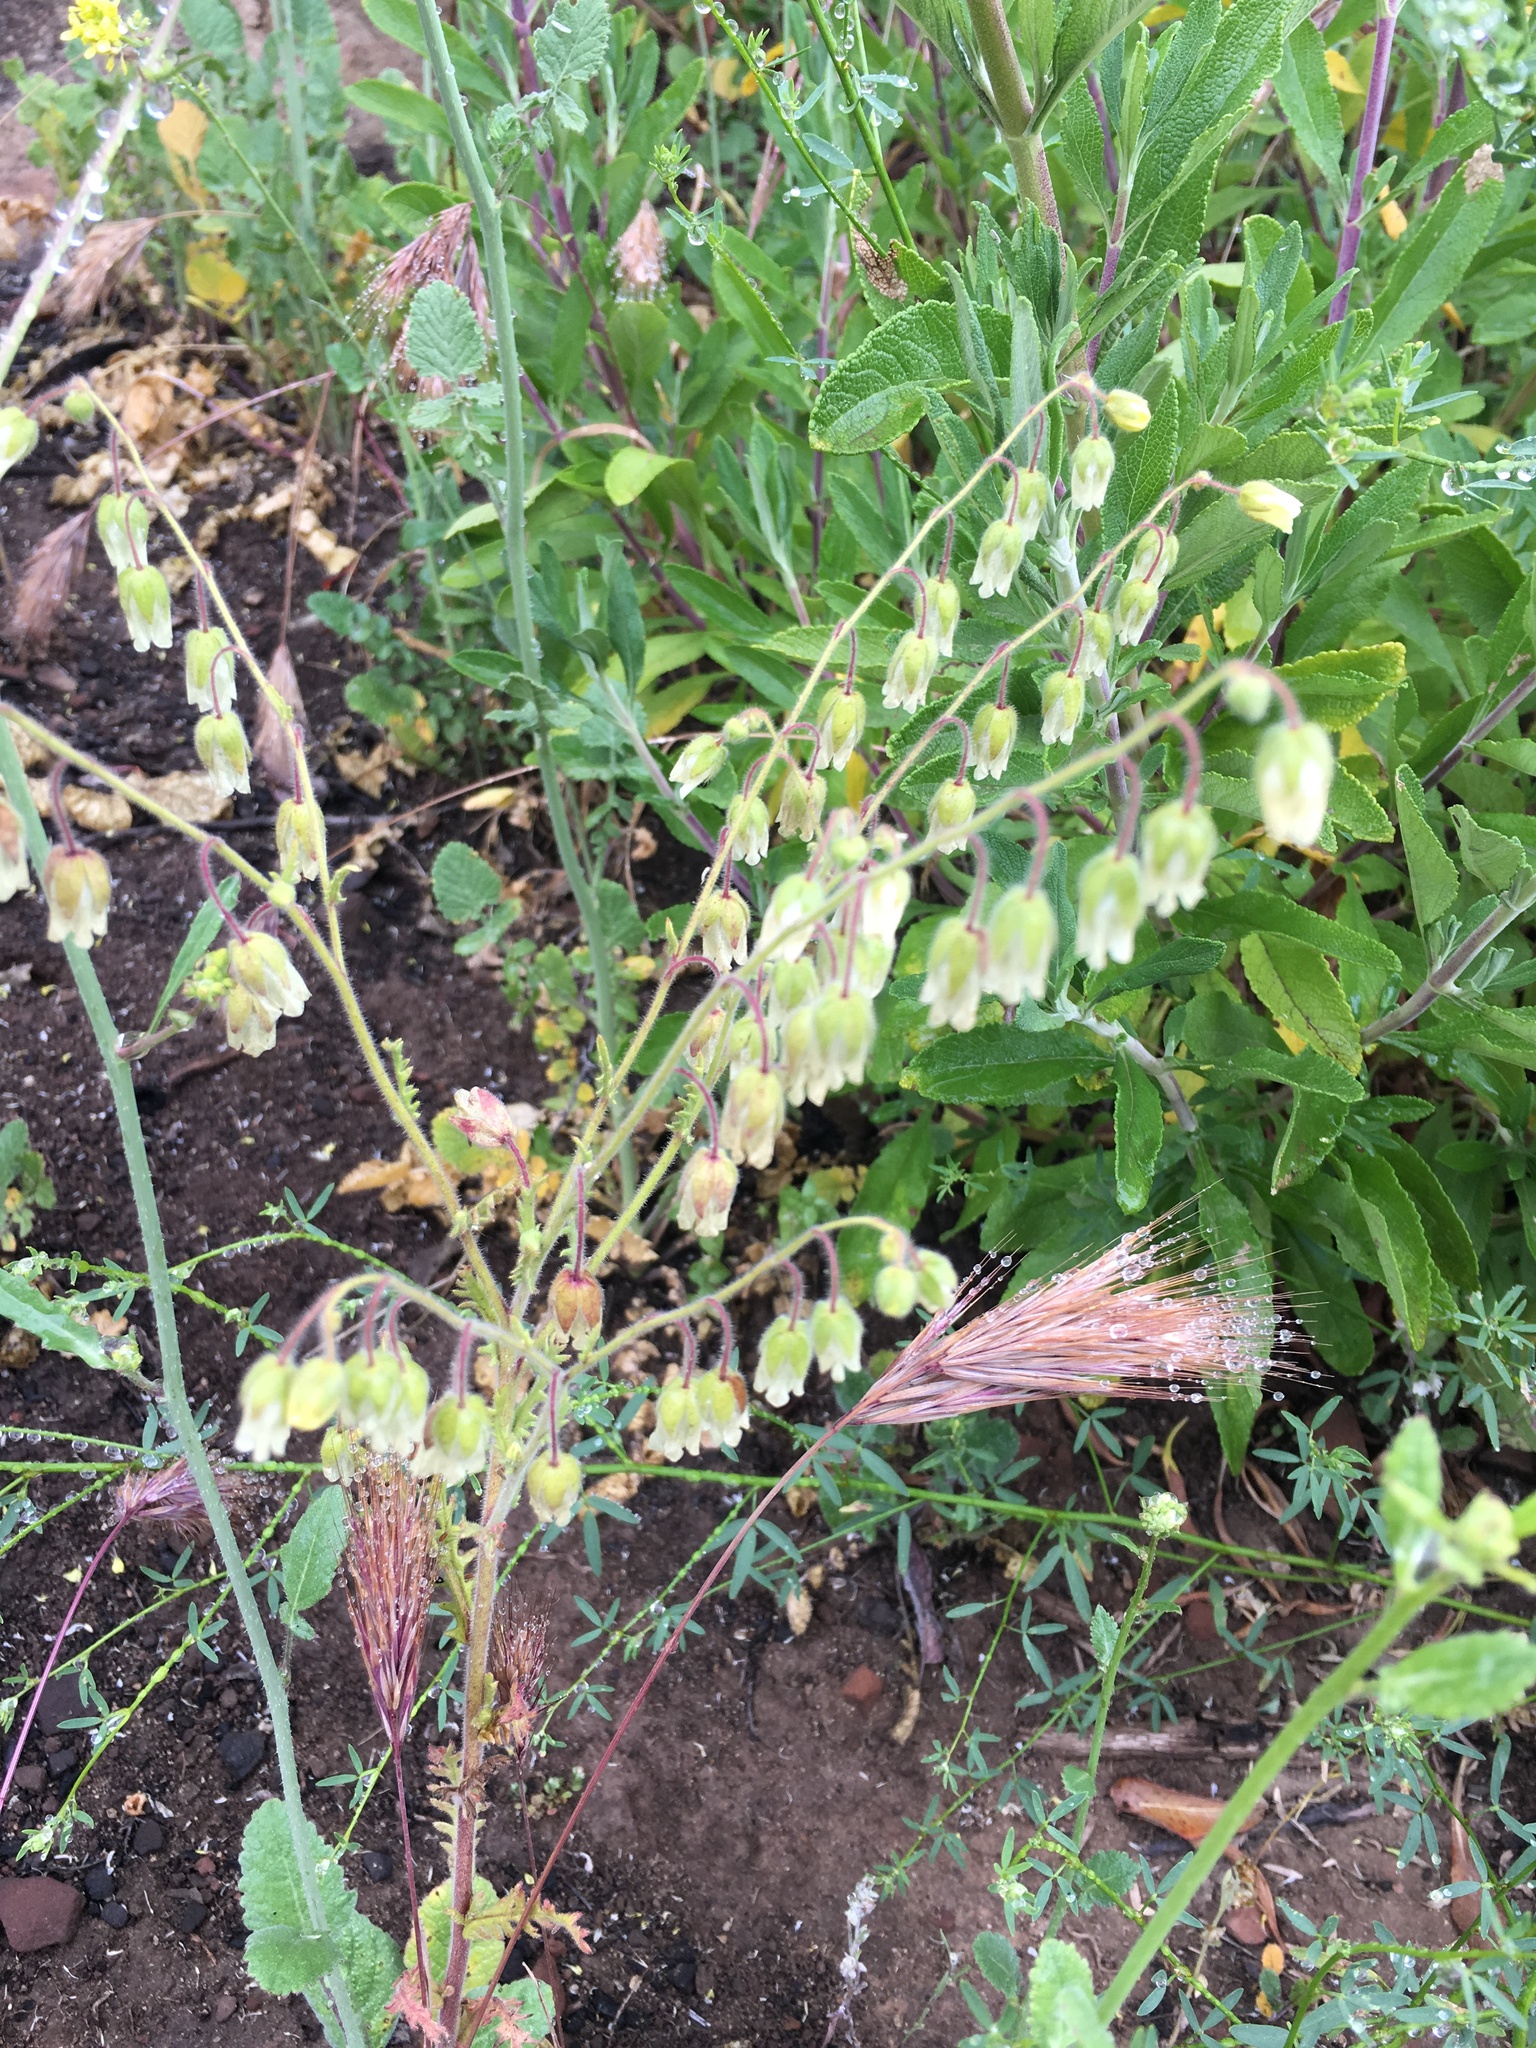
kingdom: Plantae
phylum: Tracheophyta
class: Magnoliopsida
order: Boraginales
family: Hydrophyllaceae
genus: Emmenanthe
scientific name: Emmenanthe penduliflora
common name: Whispering-bells
